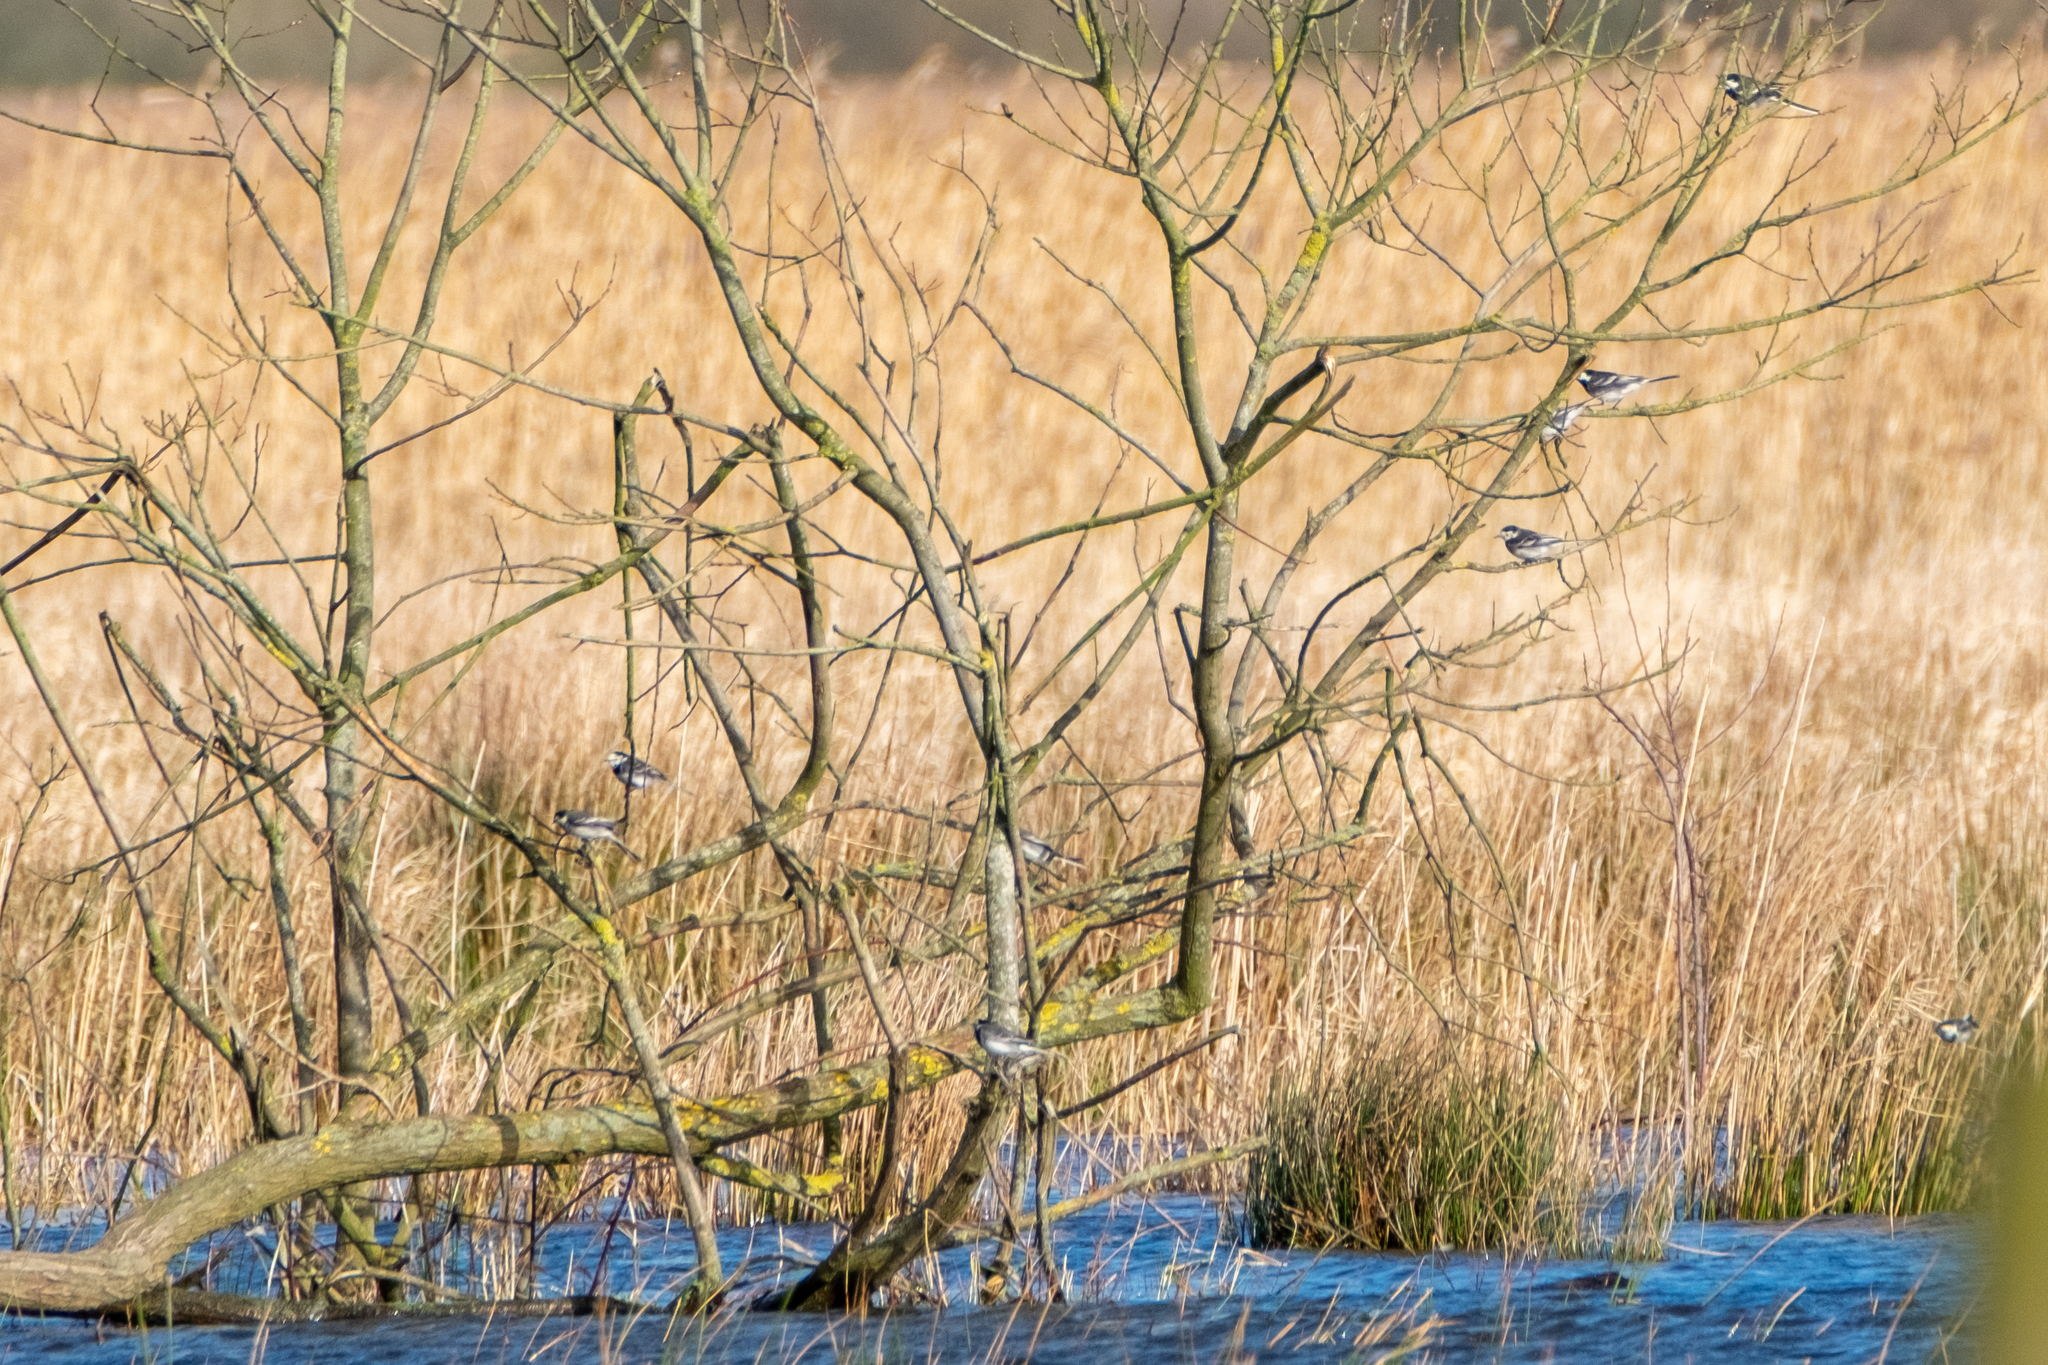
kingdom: Animalia
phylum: Chordata
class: Aves
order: Passeriformes
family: Motacillidae
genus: Motacilla
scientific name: Motacilla alba
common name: White wagtail
